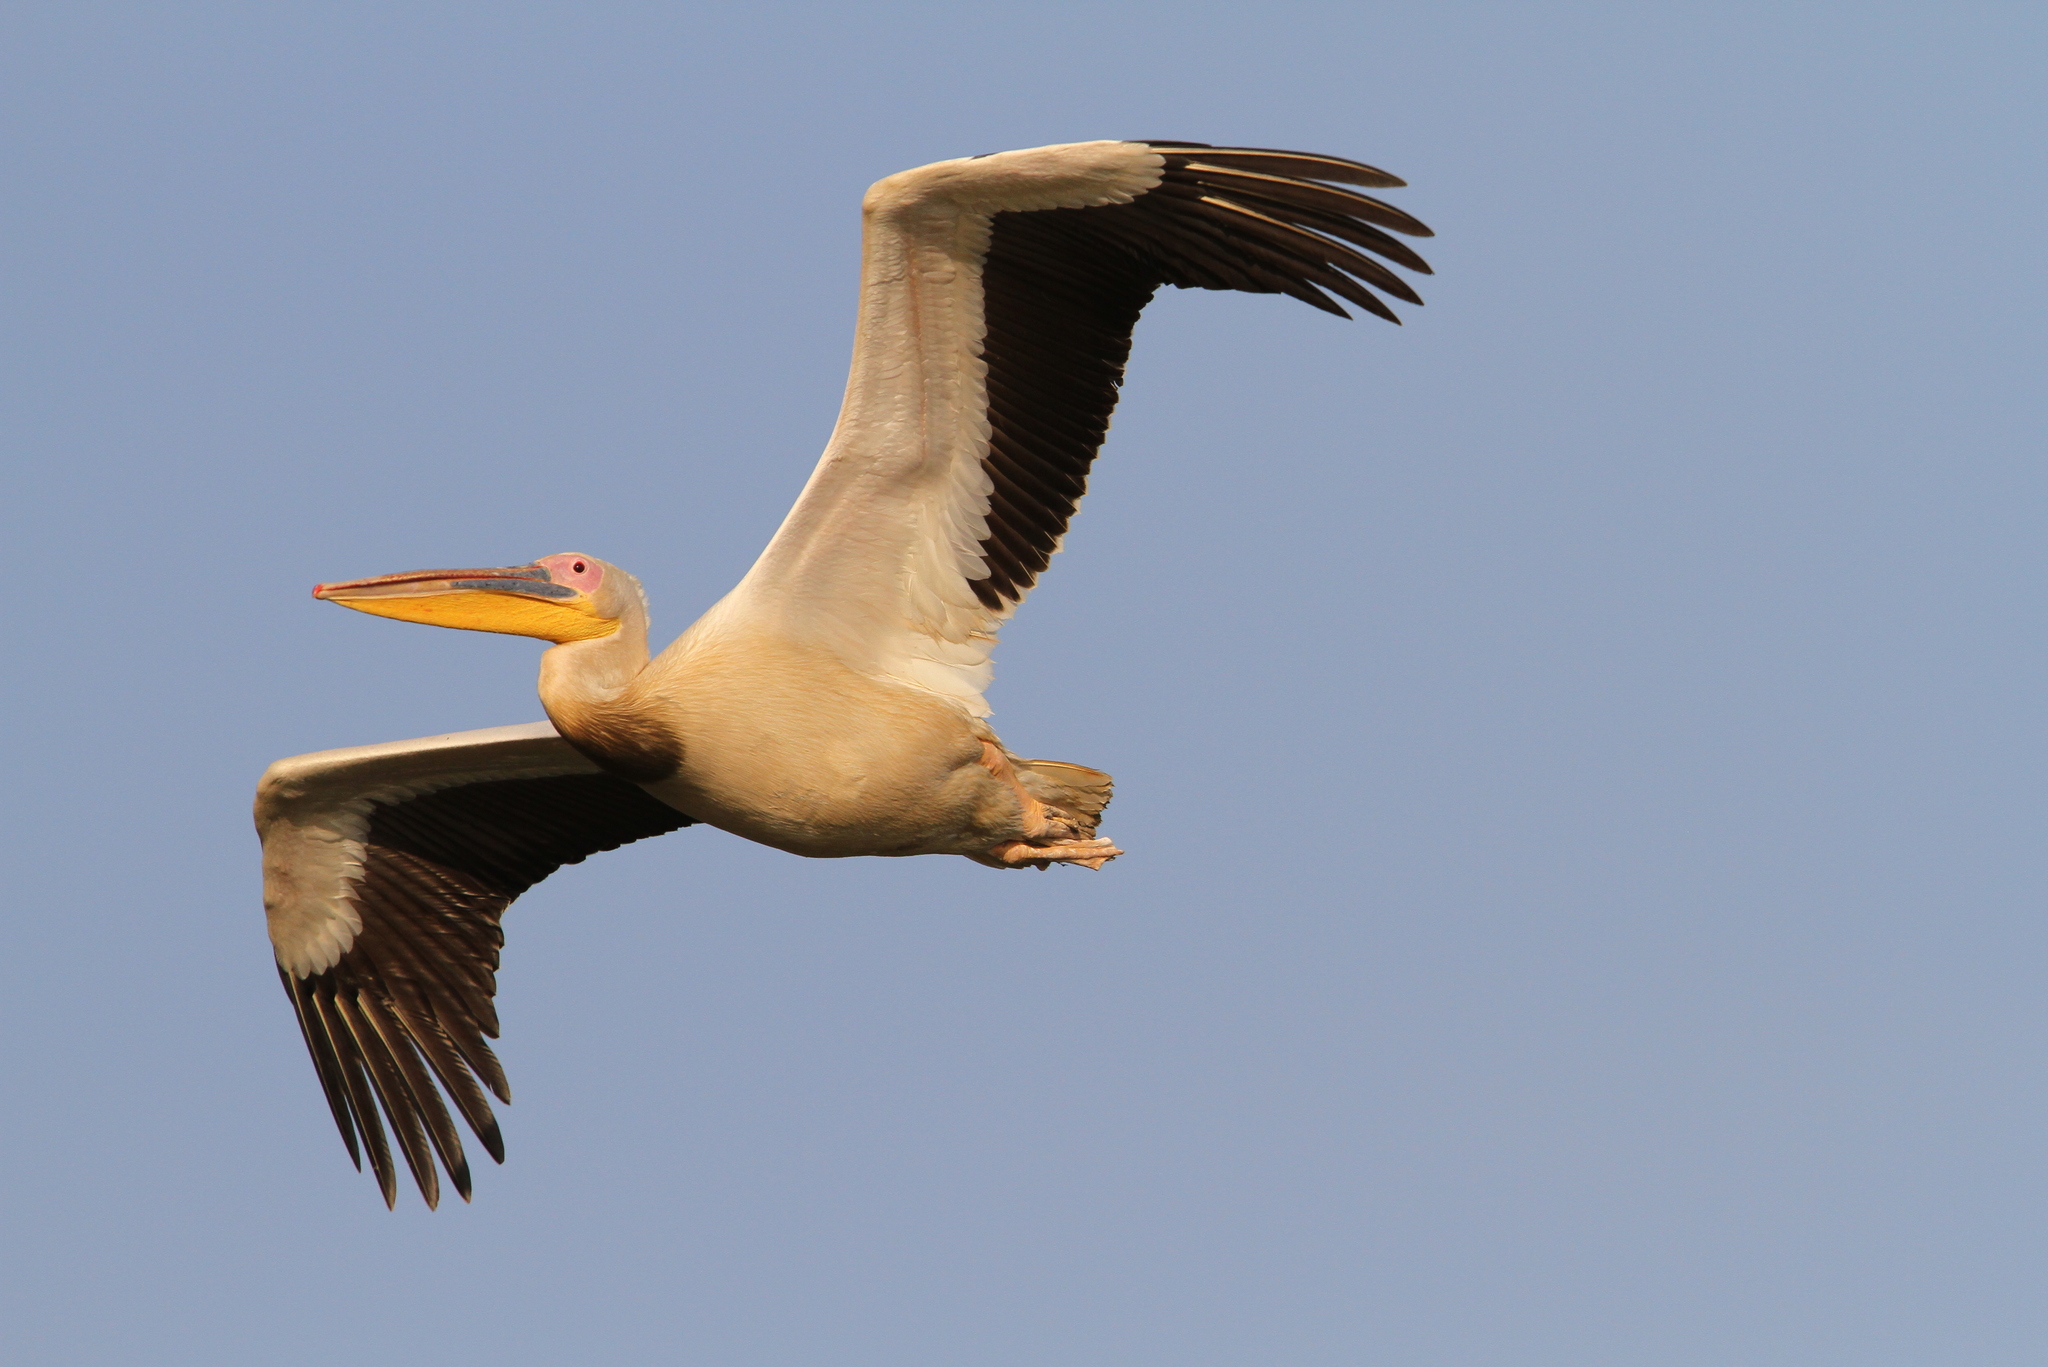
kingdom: Animalia
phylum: Chordata
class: Aves
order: Pelecaniformes
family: Pelecanidae
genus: Pelecanus
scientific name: Pelecanus onocrotalus
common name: Great white pelican
